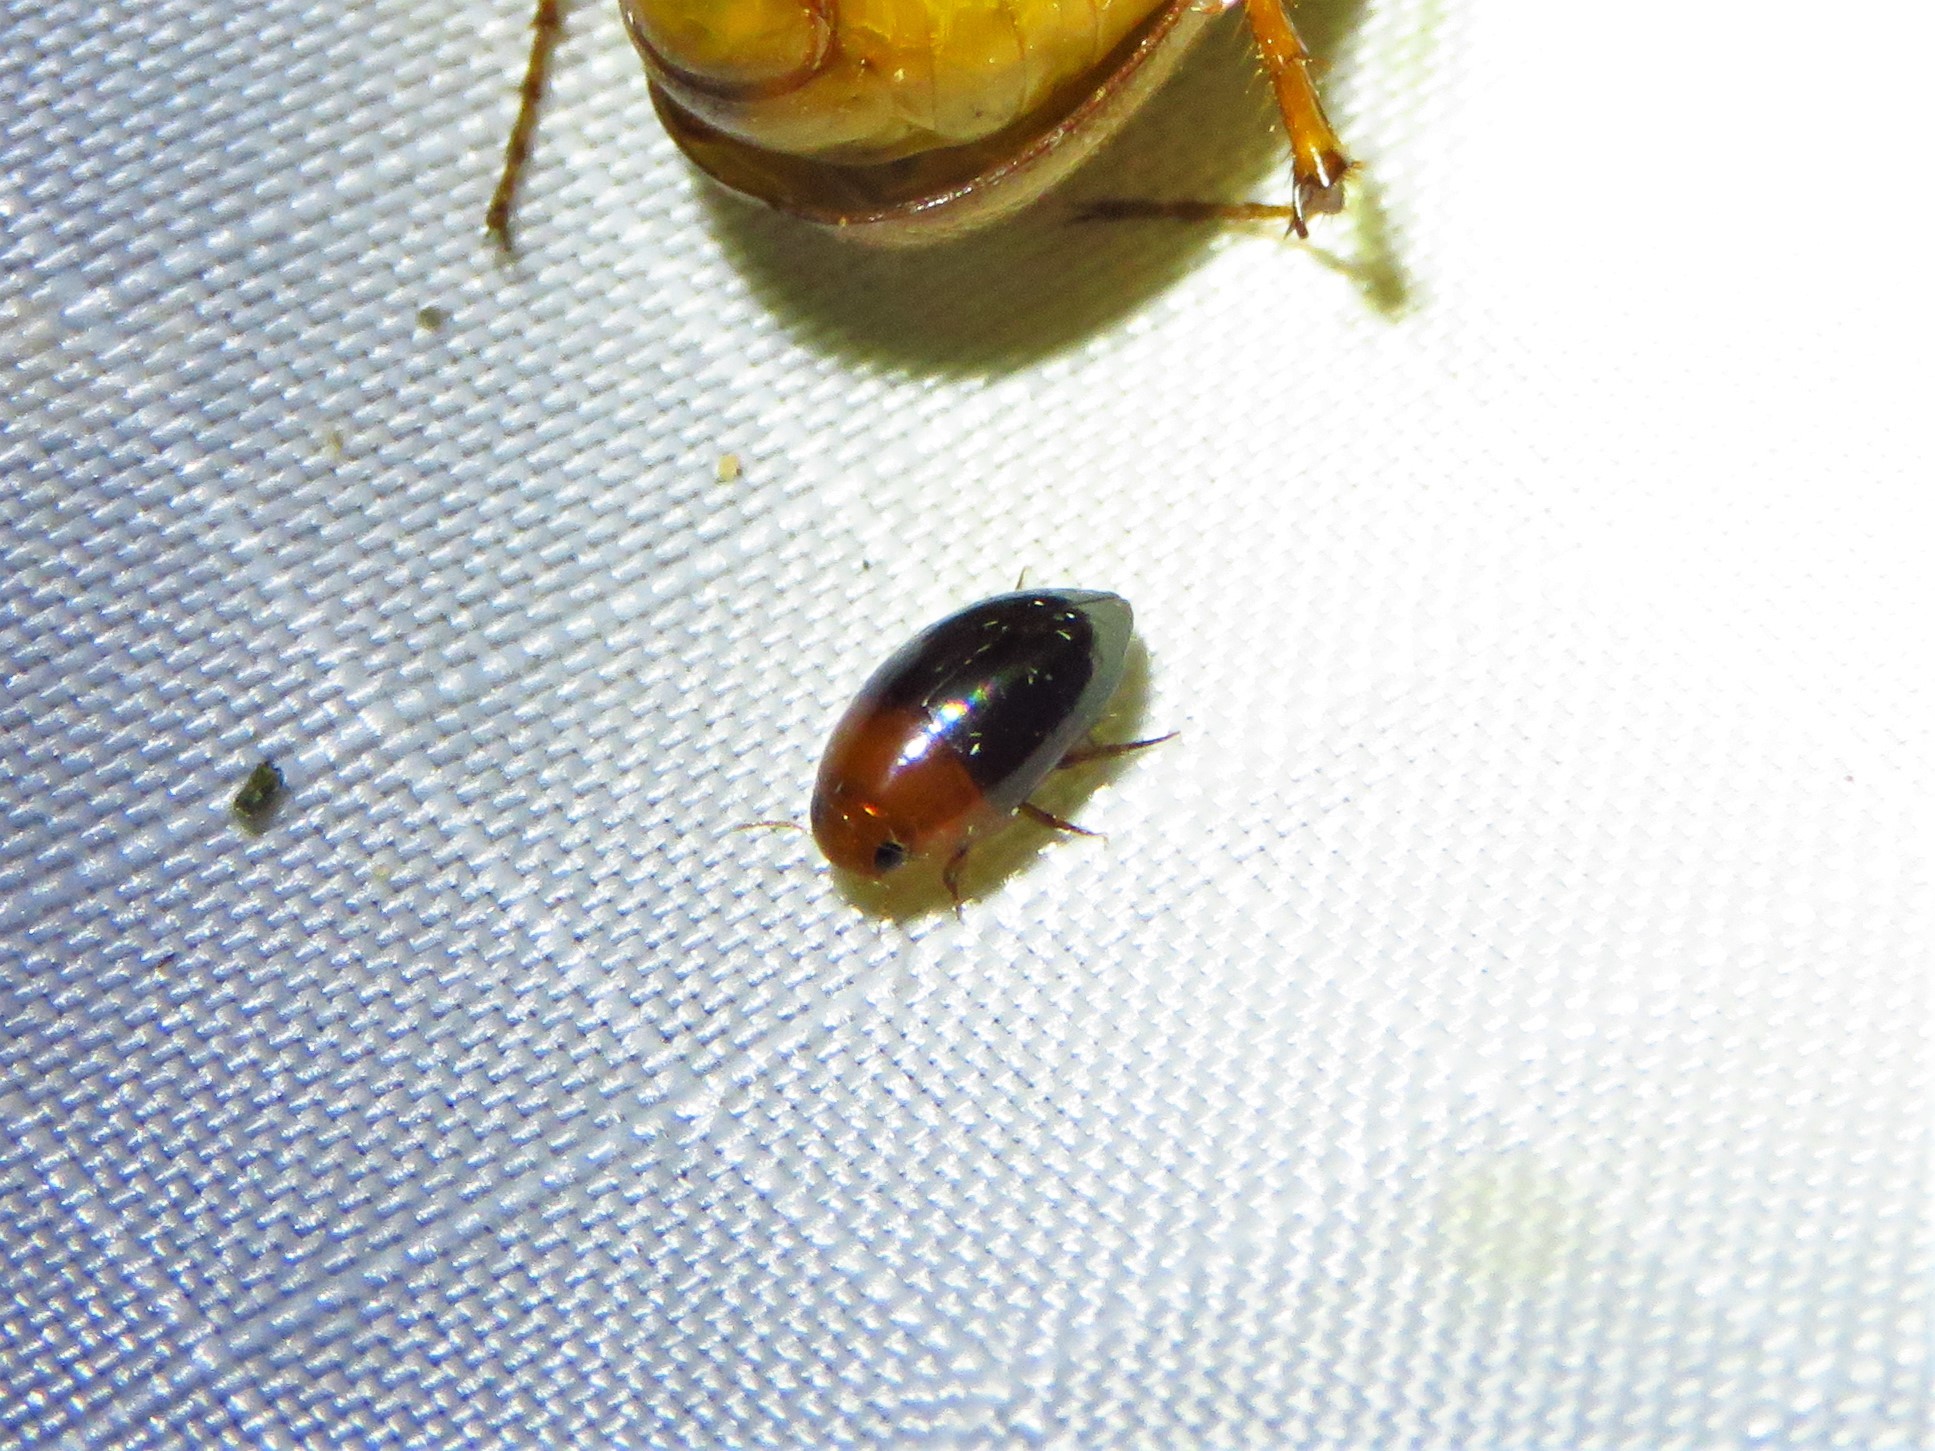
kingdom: Animalia
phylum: Arthropoda
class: Insecta
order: Coleoptera
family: Noteridae
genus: Hydrocanthus
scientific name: Hydrocanthus atripennis
